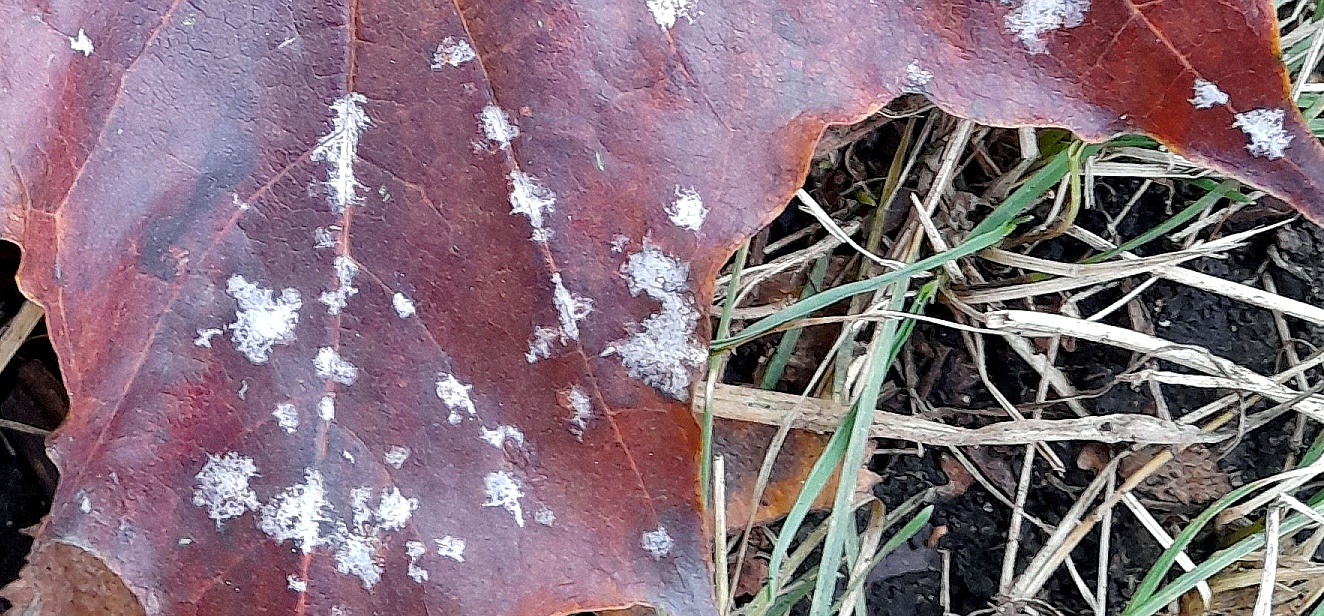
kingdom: Fungi
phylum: Ascomycota
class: Leotiomycetes
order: Helotiales
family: Erysiphaceae
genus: Sawadaea
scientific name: Sawadaea tulasnei
